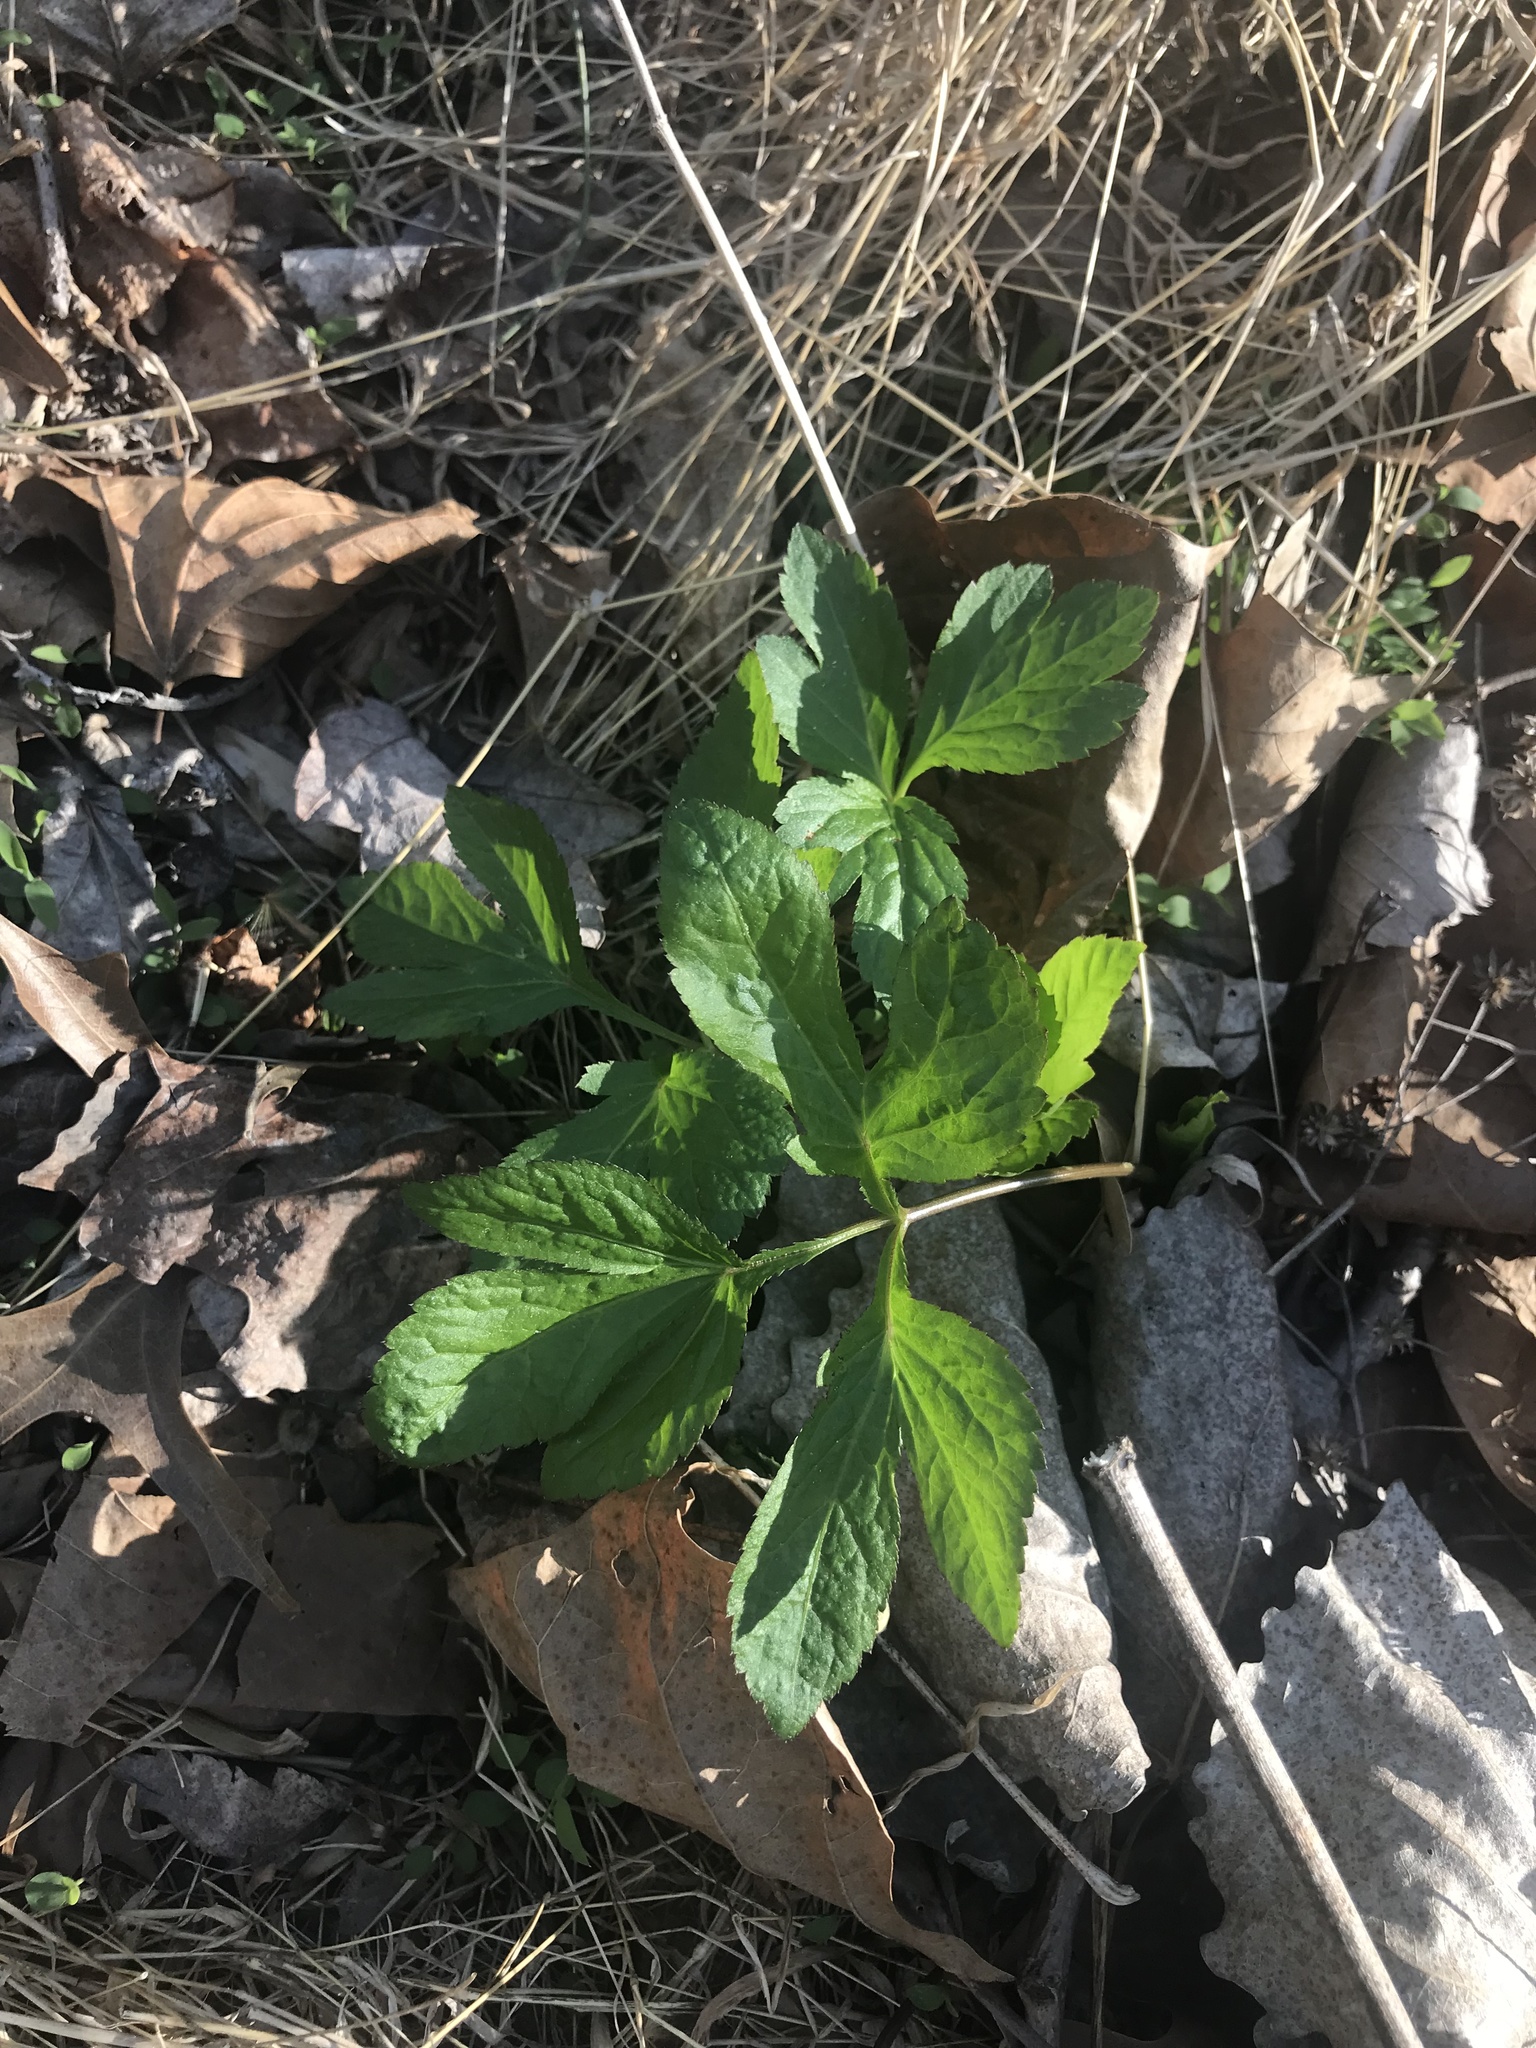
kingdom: Plantae
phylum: Tracheophyta
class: Magnoliopsida
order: Asterales
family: Asteraceae
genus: Ambrosia
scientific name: Ambrosia trifida
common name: Giant ragweed
